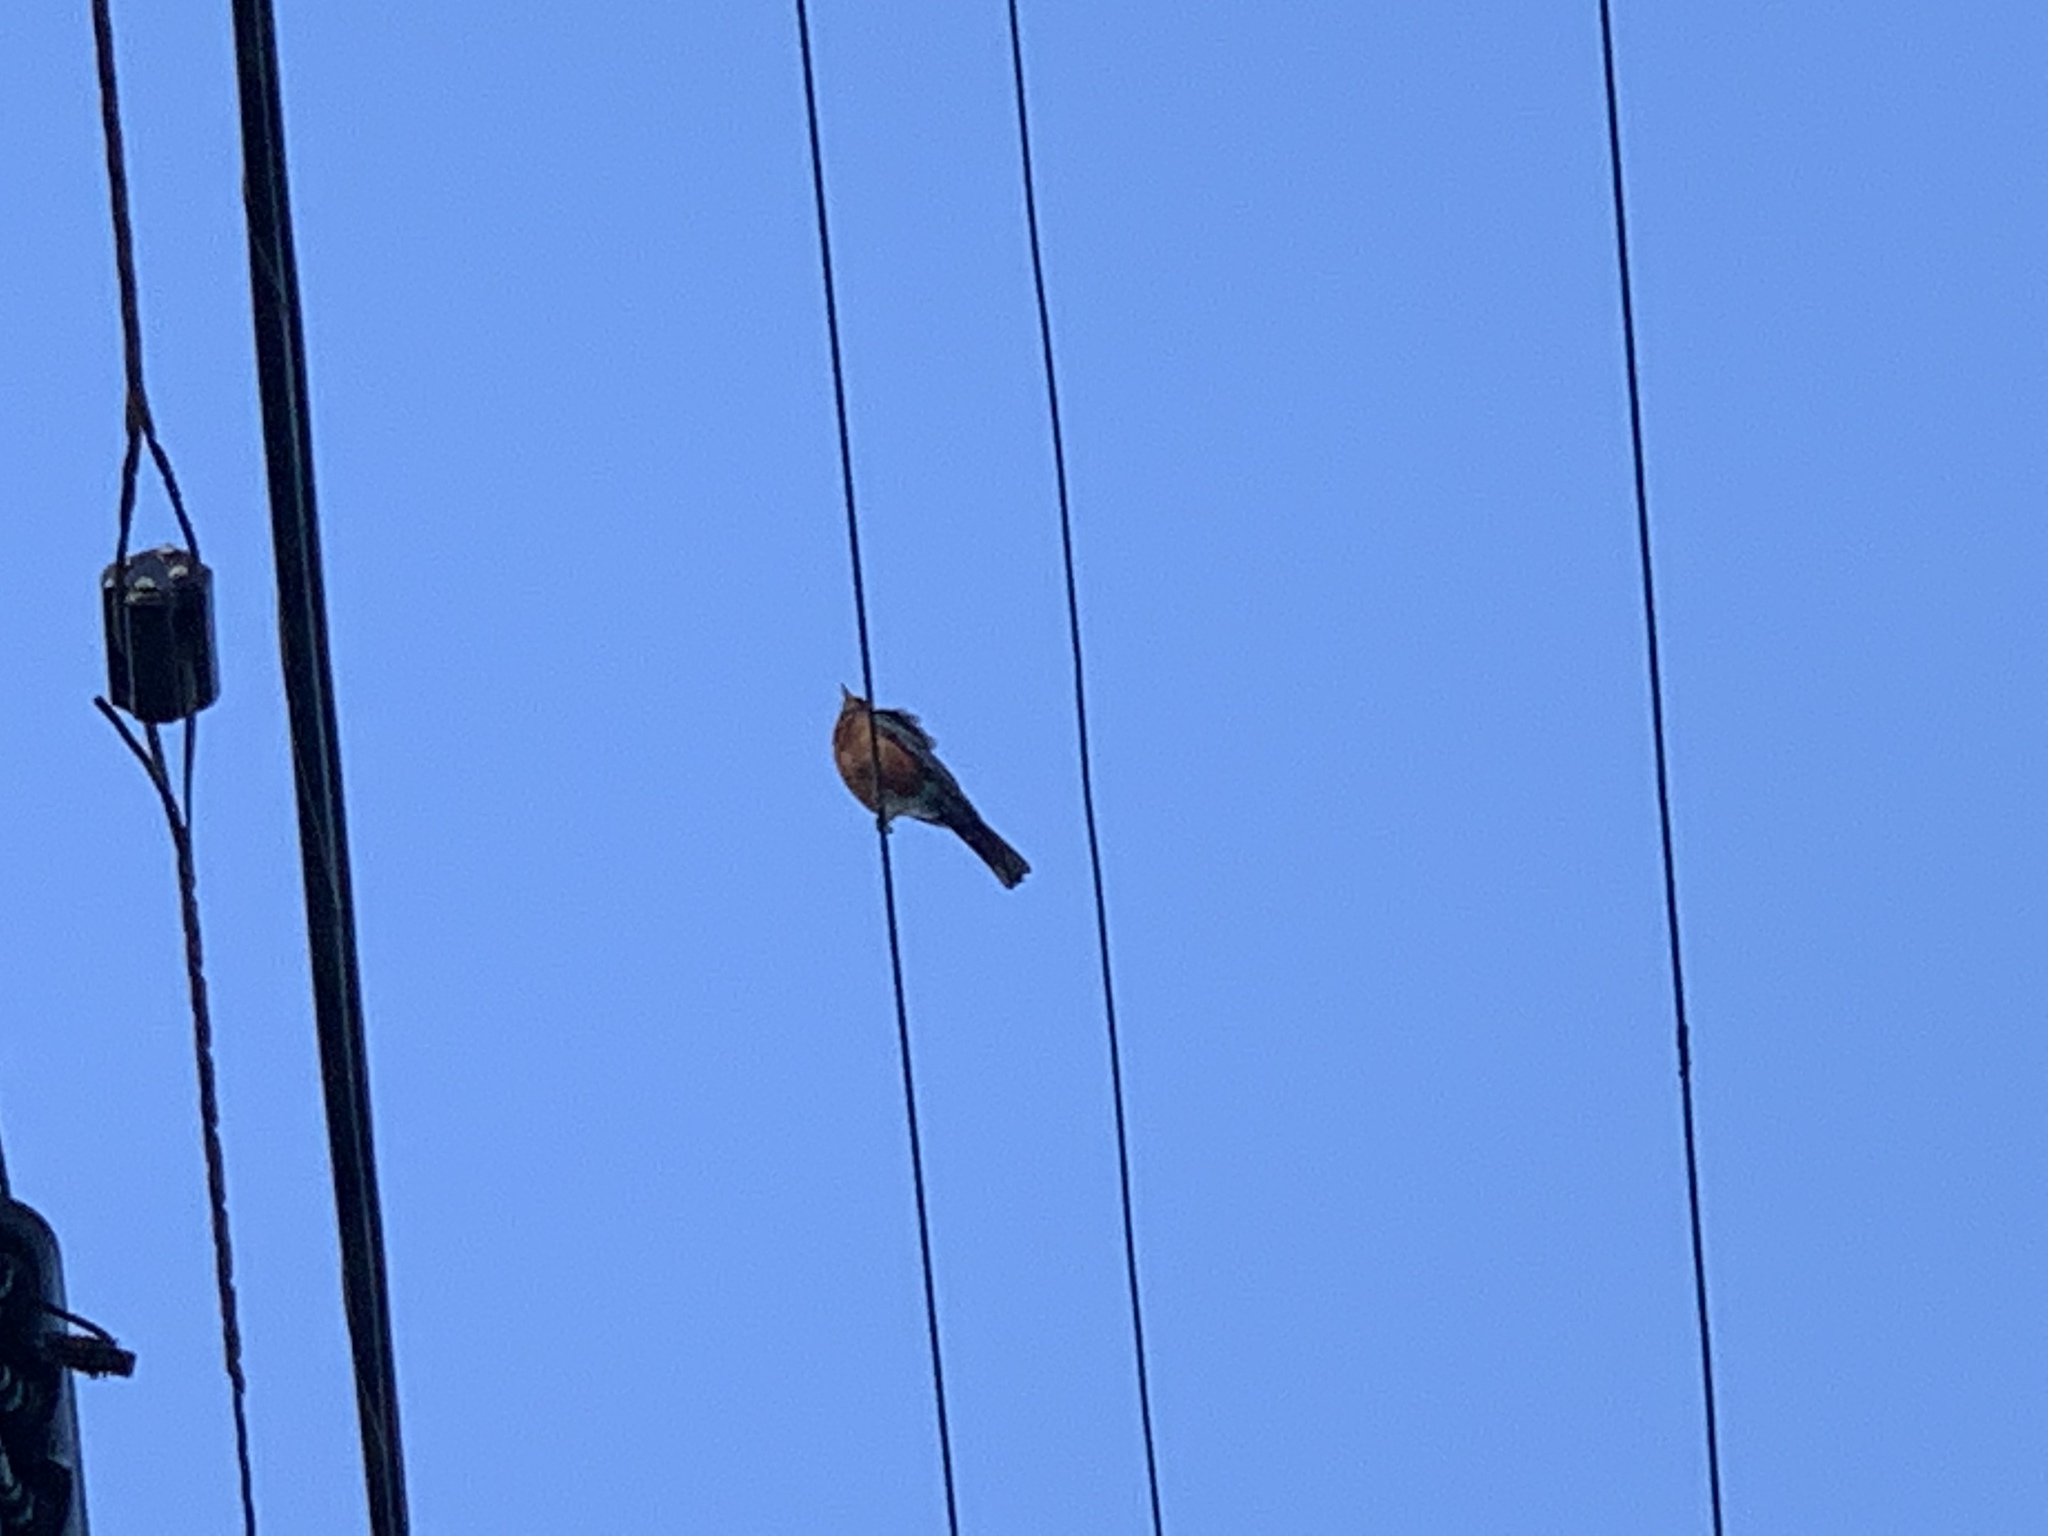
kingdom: Animalia
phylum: Chordata
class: Aves
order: Passeriformes
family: Turdidae
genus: Turdus
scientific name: Turdus migratorius
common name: American robin
